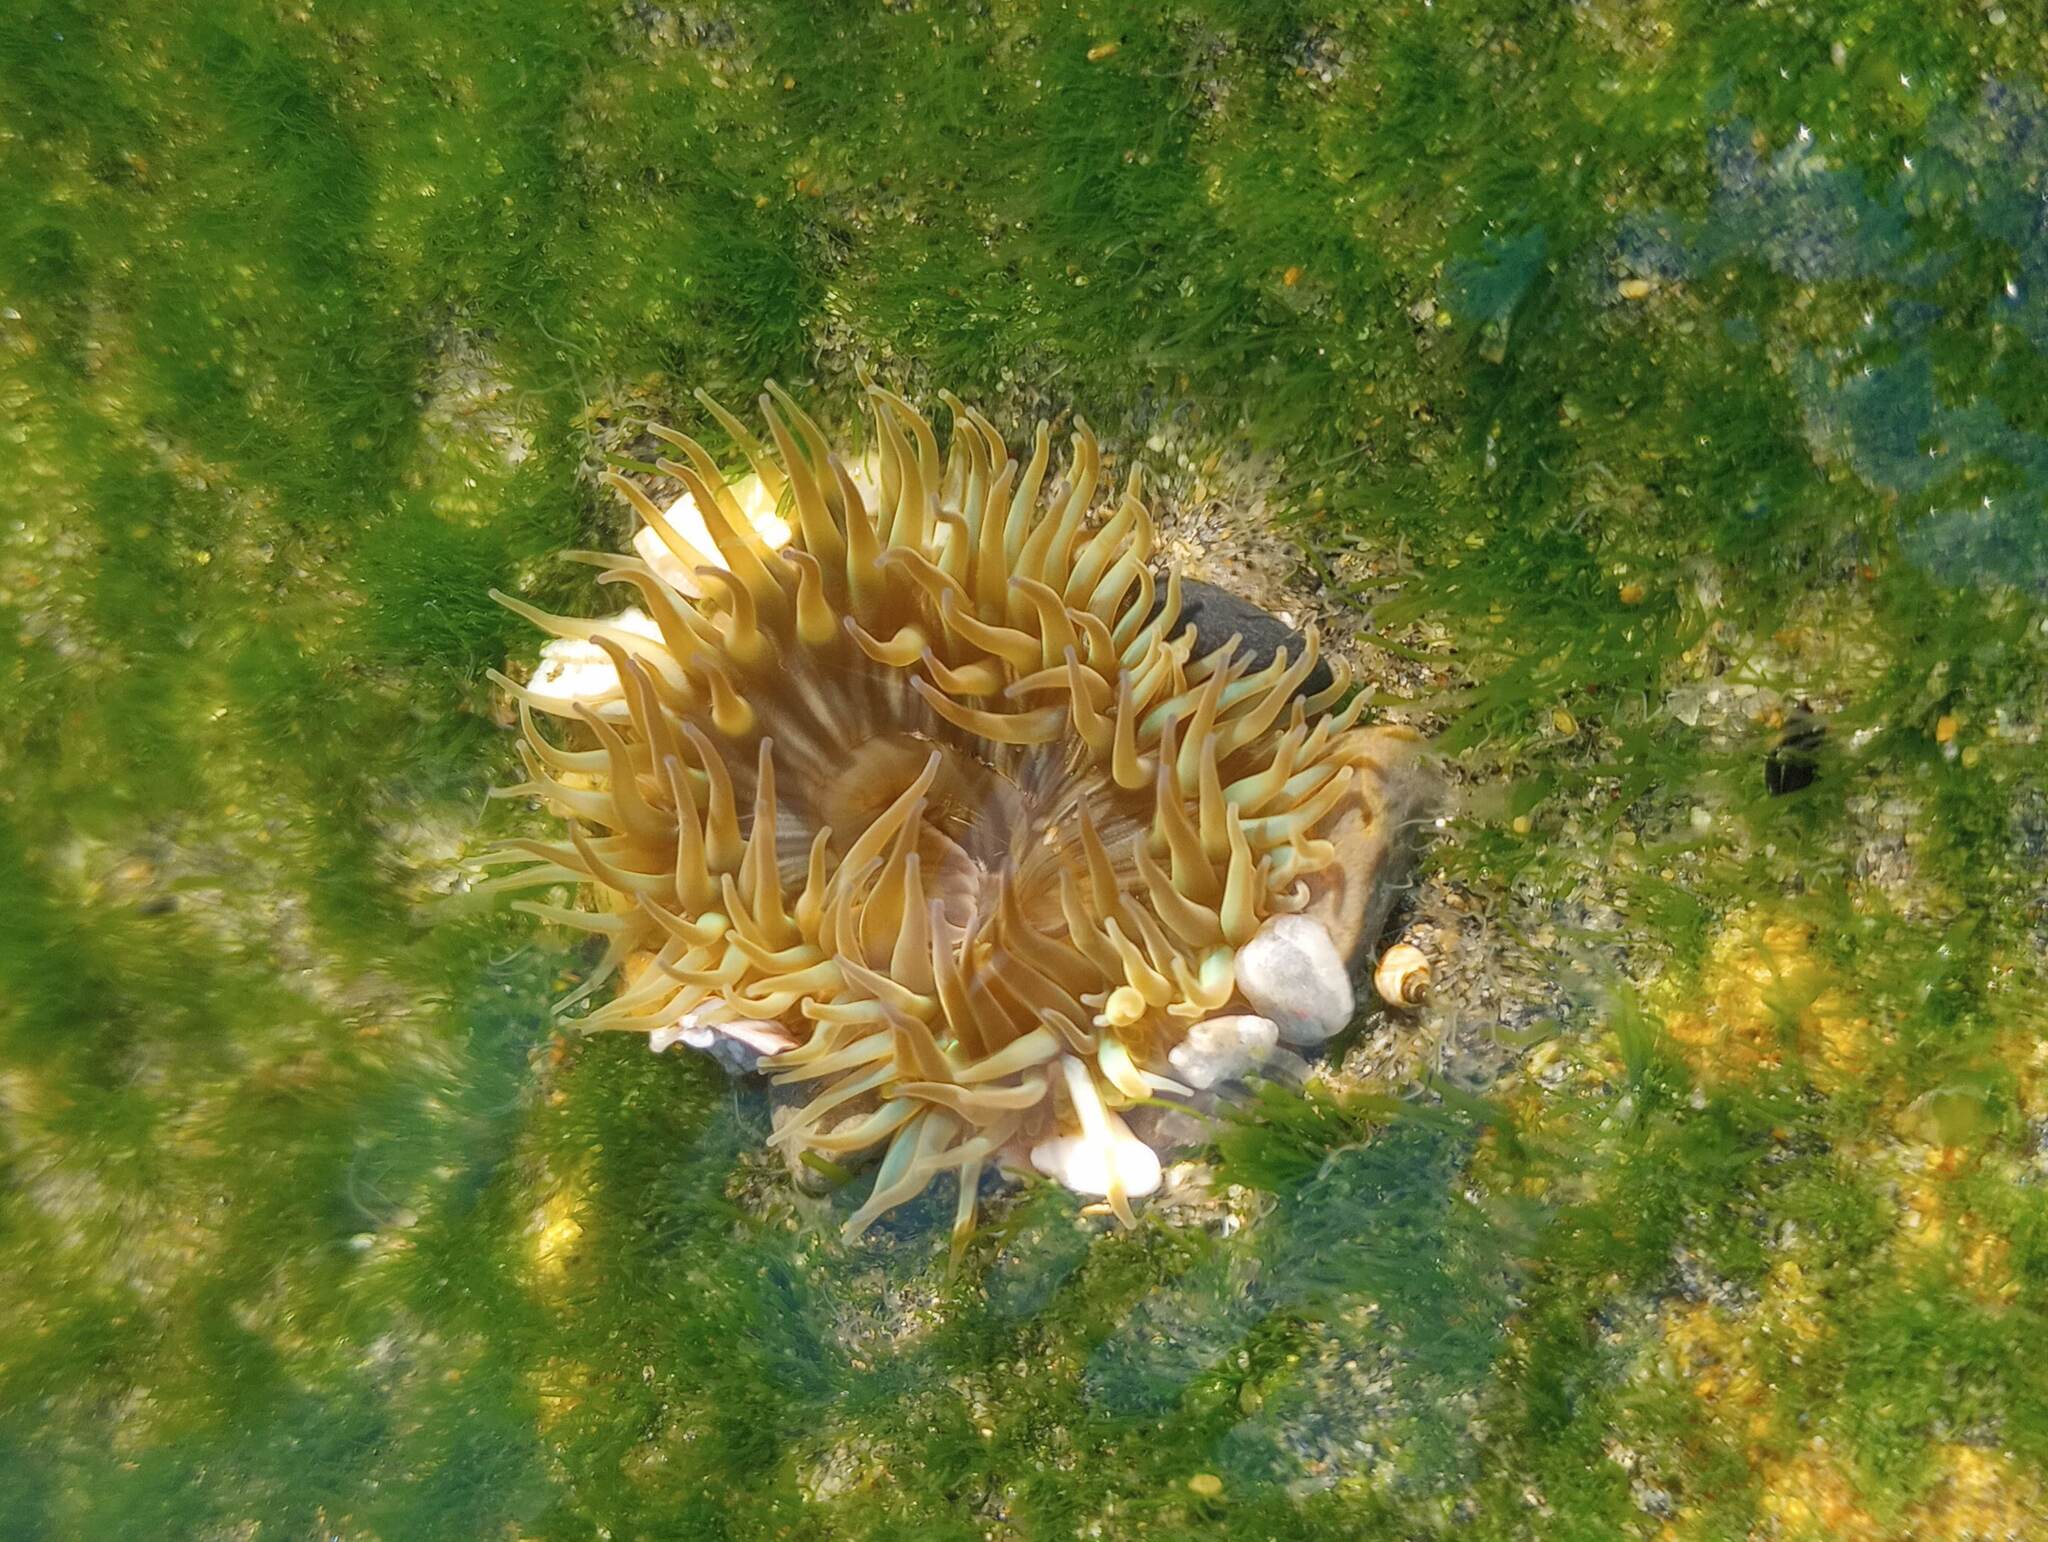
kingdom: Animalia
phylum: Cnidaria
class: Anthozoa
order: Actiniaria
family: Actiniidae
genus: Anthopleura
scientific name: Anthopleura sola
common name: Sun anemone
